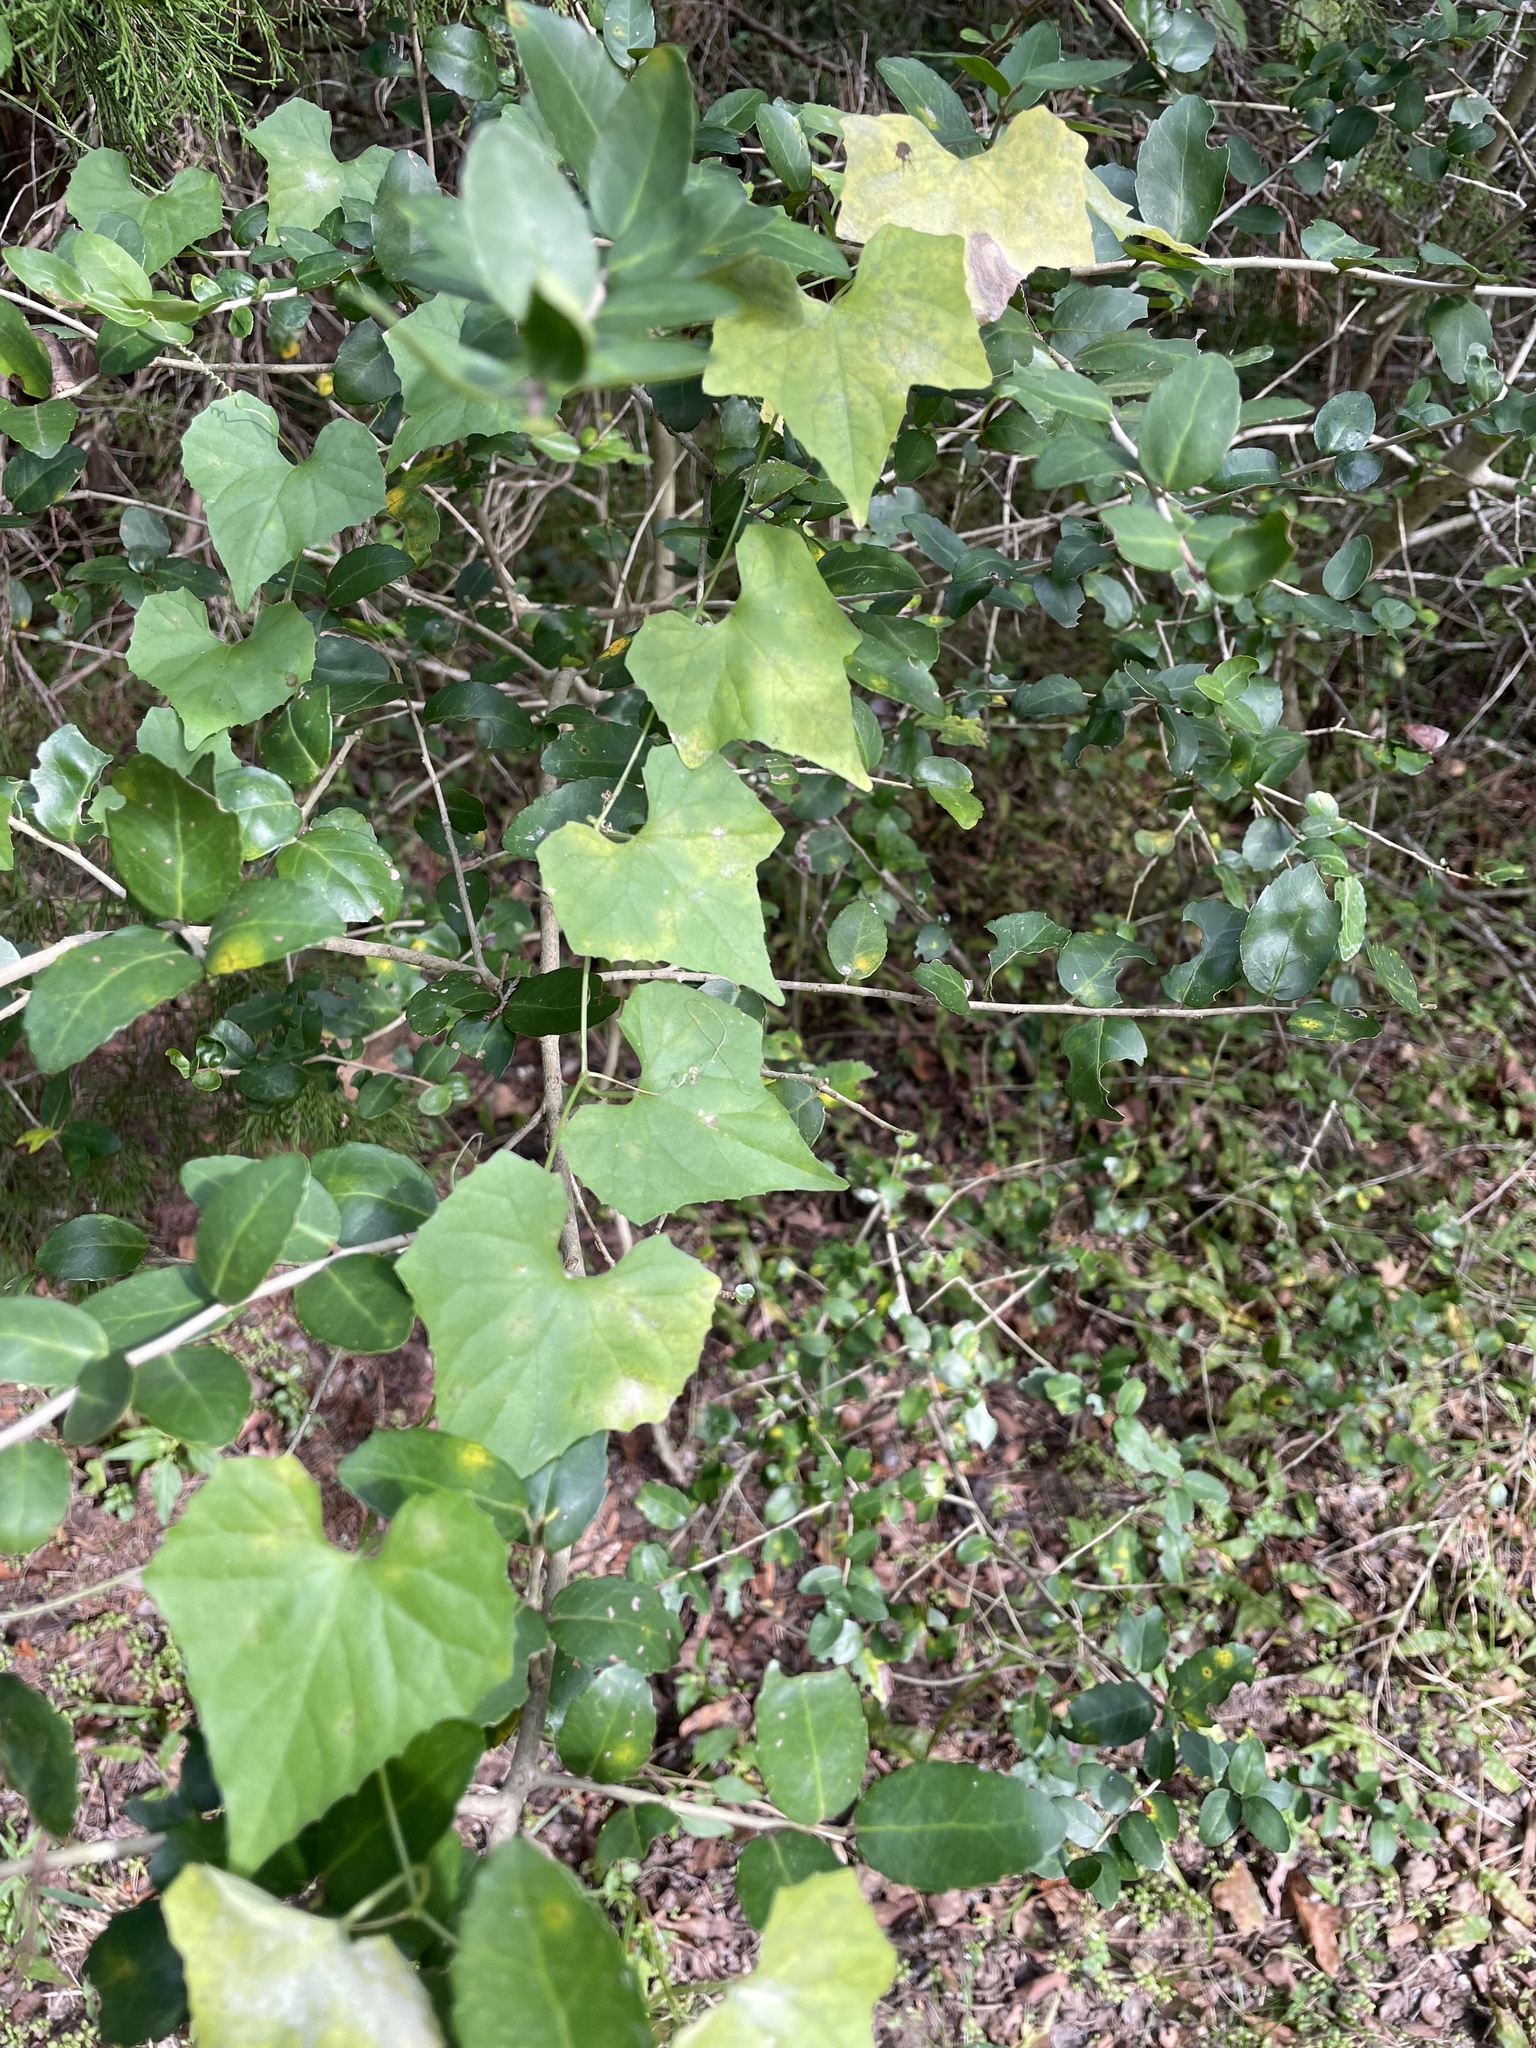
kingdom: Plantae
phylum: Tracheophyta
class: Magnoliopsida
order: Cucurbitales
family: Cucurbitaceae
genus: Melothria
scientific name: Melothria pendula
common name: Creeping-cucumber
